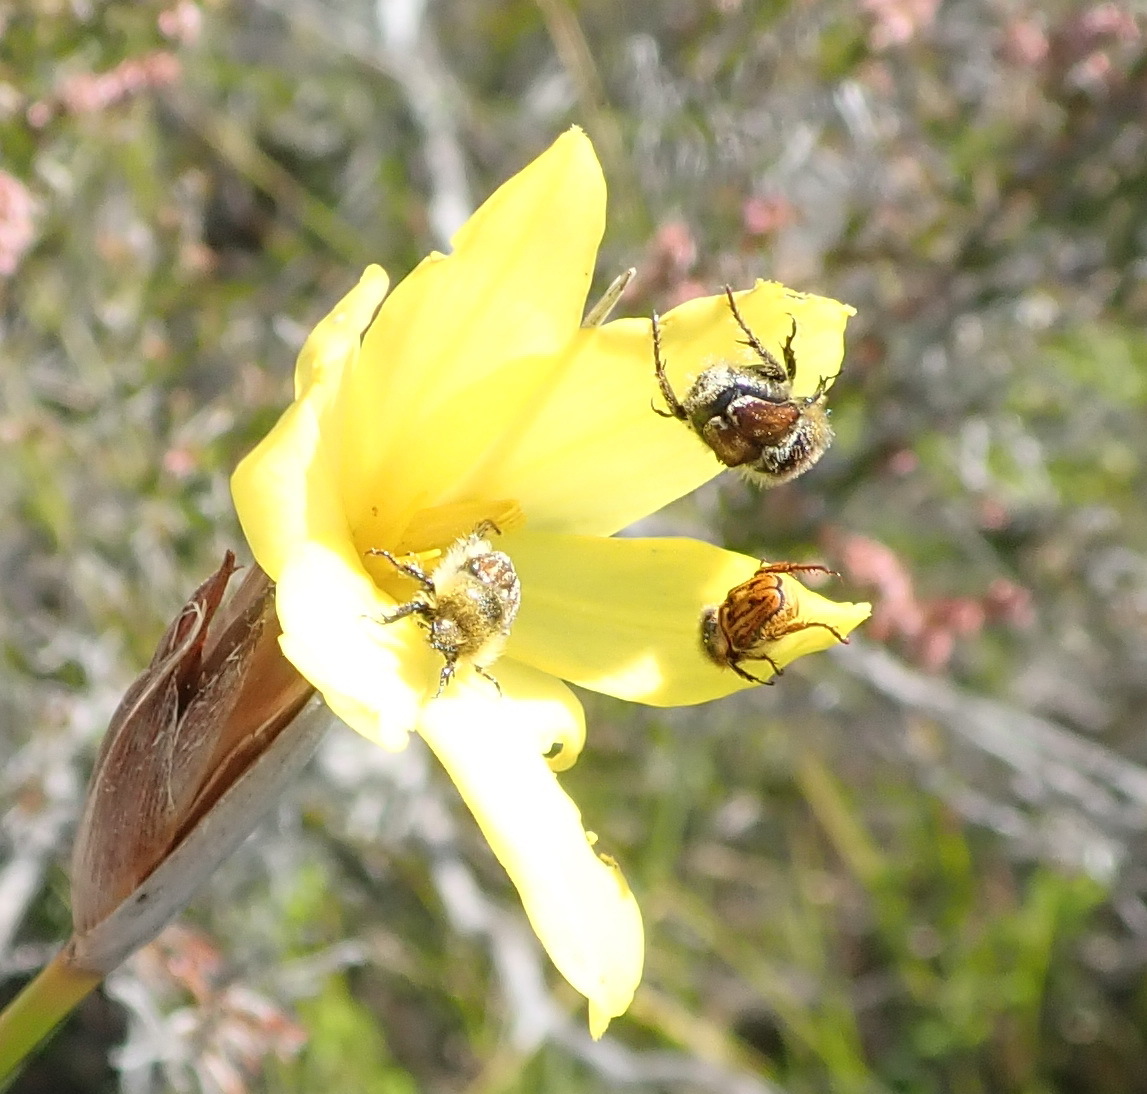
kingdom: Plantae
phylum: Tracheophyta
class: Liliopsida
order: Asparagales
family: Iridaceae
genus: Bobartia
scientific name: Bobartia macrospatha
